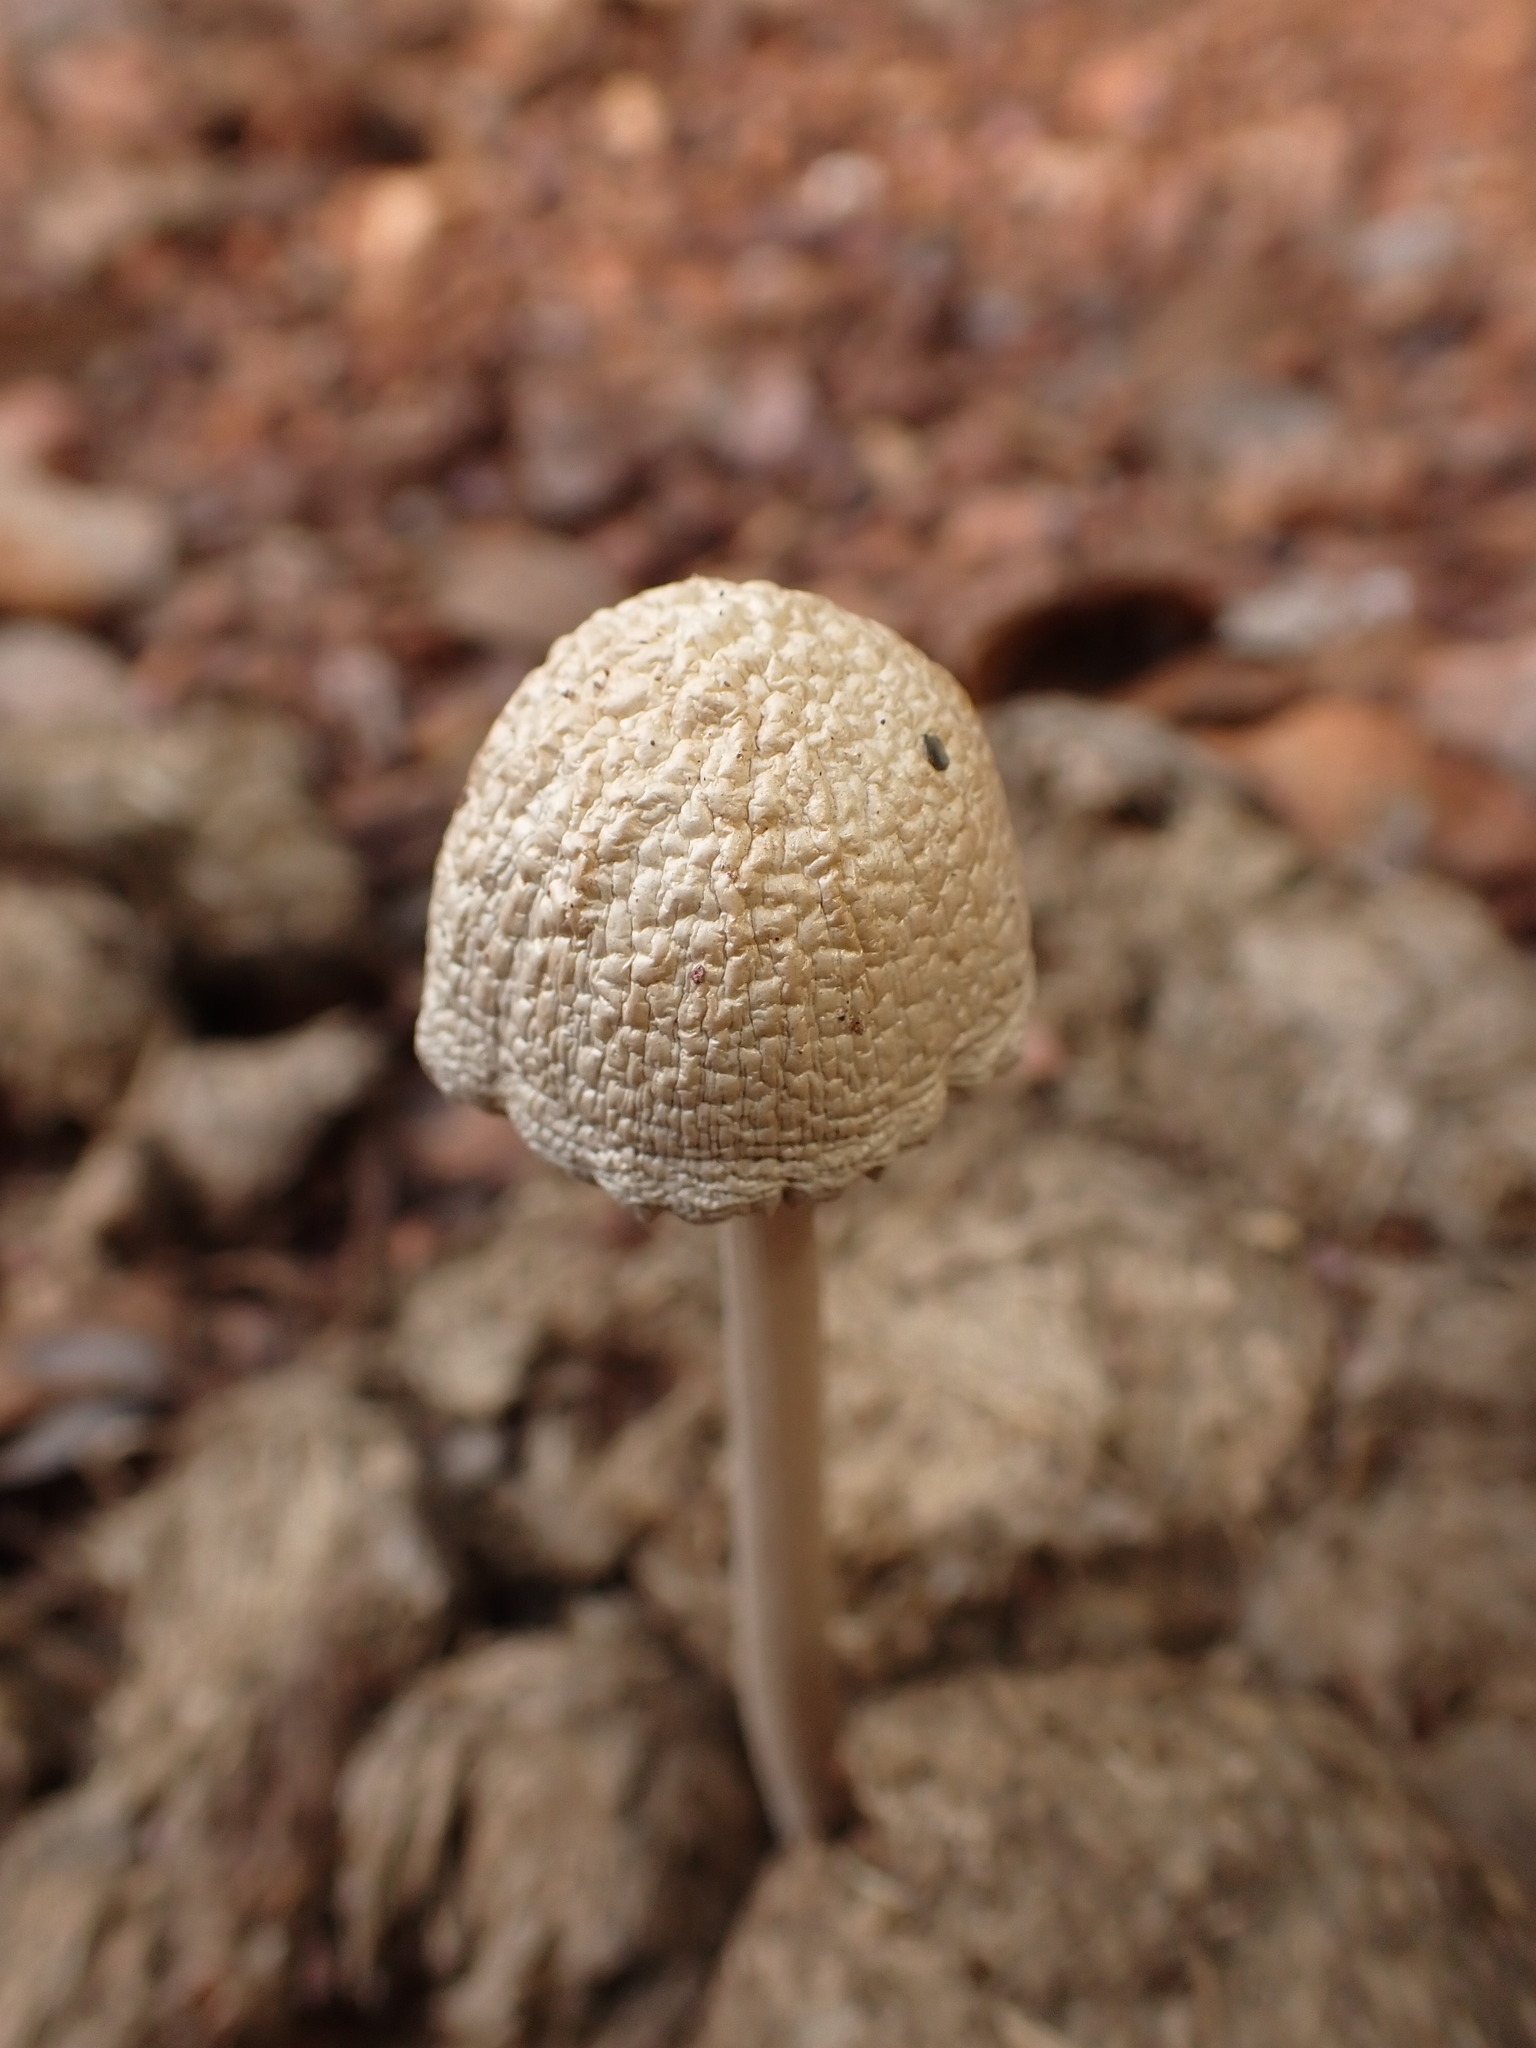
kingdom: Fungi
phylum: Basidiomycota
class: Agaricomycetes
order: Agaricales
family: Bolbitiaceae
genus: Panaeolus
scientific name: Panaeolus antillarum
